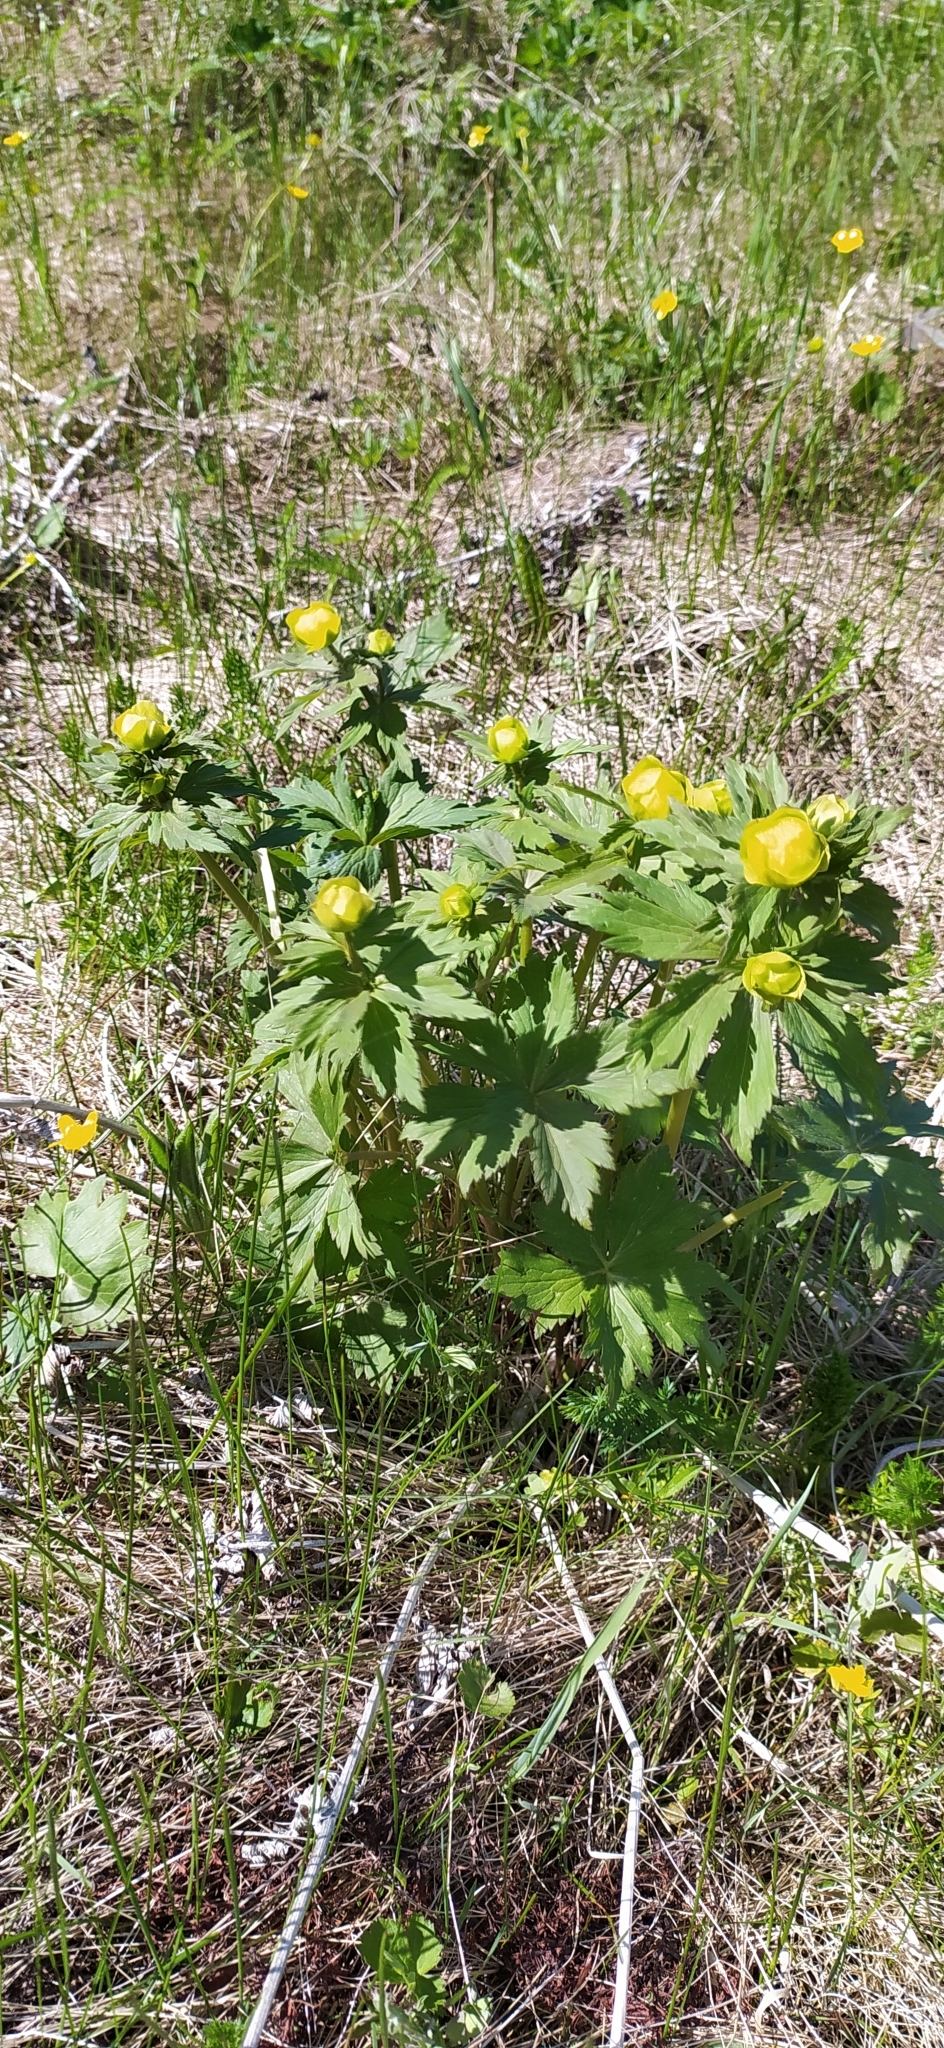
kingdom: Plantae
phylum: Tracheophyta
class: Magnoliopsida
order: Ranunculales
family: Ranunculaceae
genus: Trollius
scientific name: Trollius europaeus
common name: European globeflower
